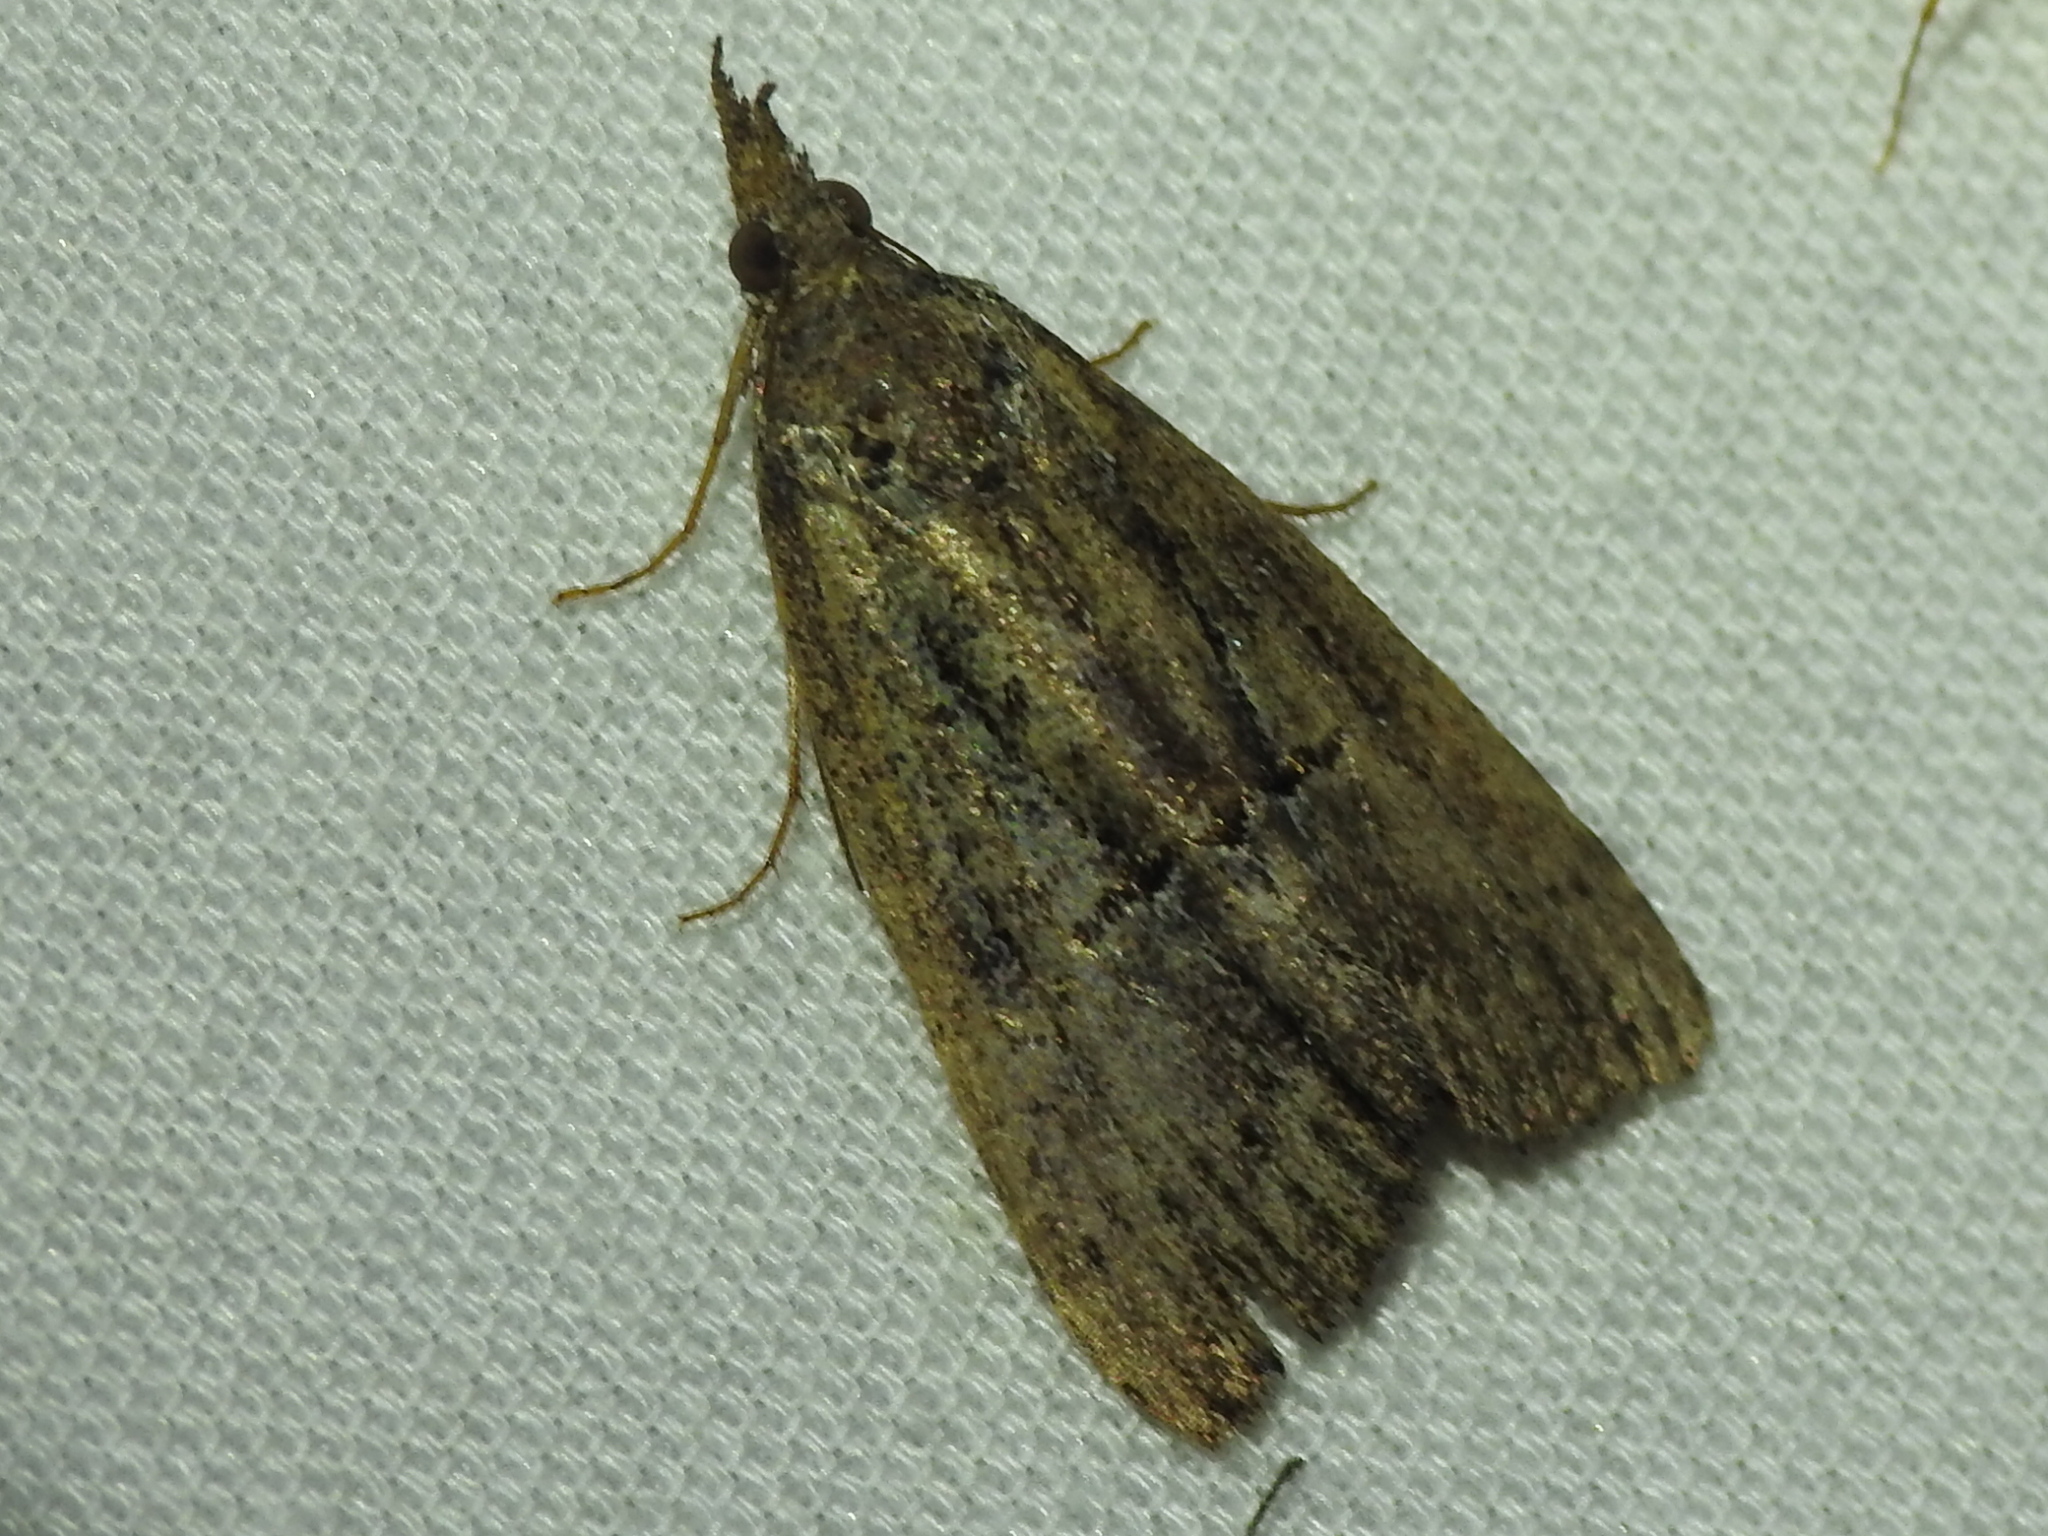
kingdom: Animalia
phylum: Arthropoda
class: Insecta
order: Lepidoptera
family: Erebidae
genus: Hypena
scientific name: Hypena scabra
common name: Green cloverworm
